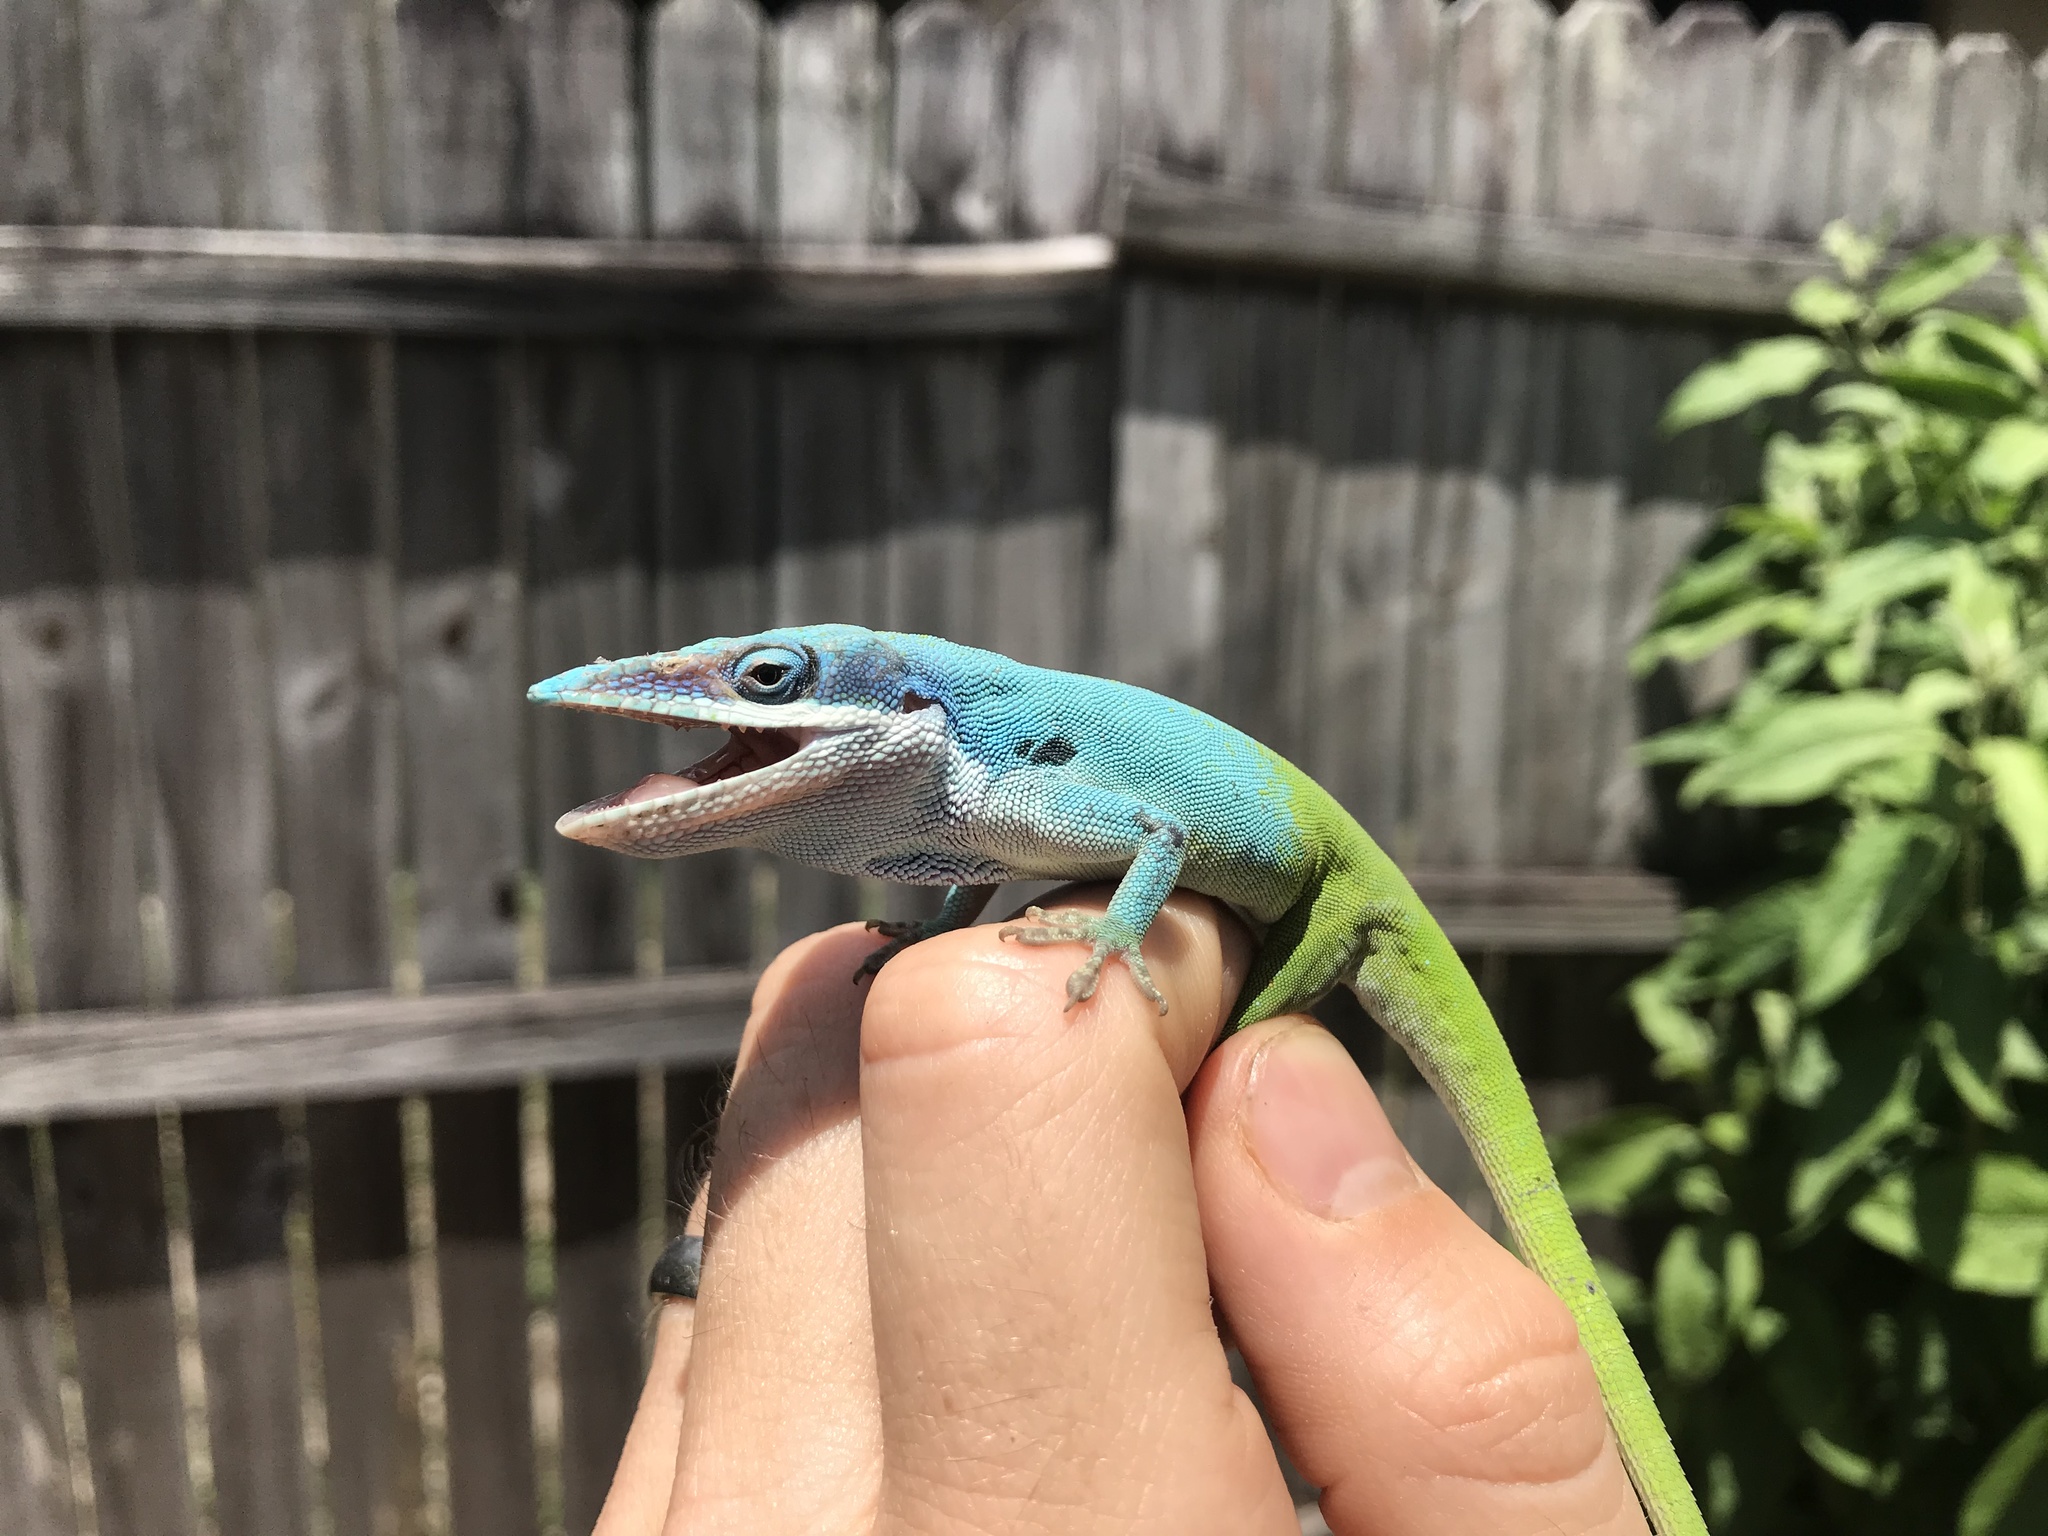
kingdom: Animalia
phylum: Chordata
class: Squamata
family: Dactyloidae
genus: Anolis
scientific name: Anolis allisoni
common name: Allison's anole
